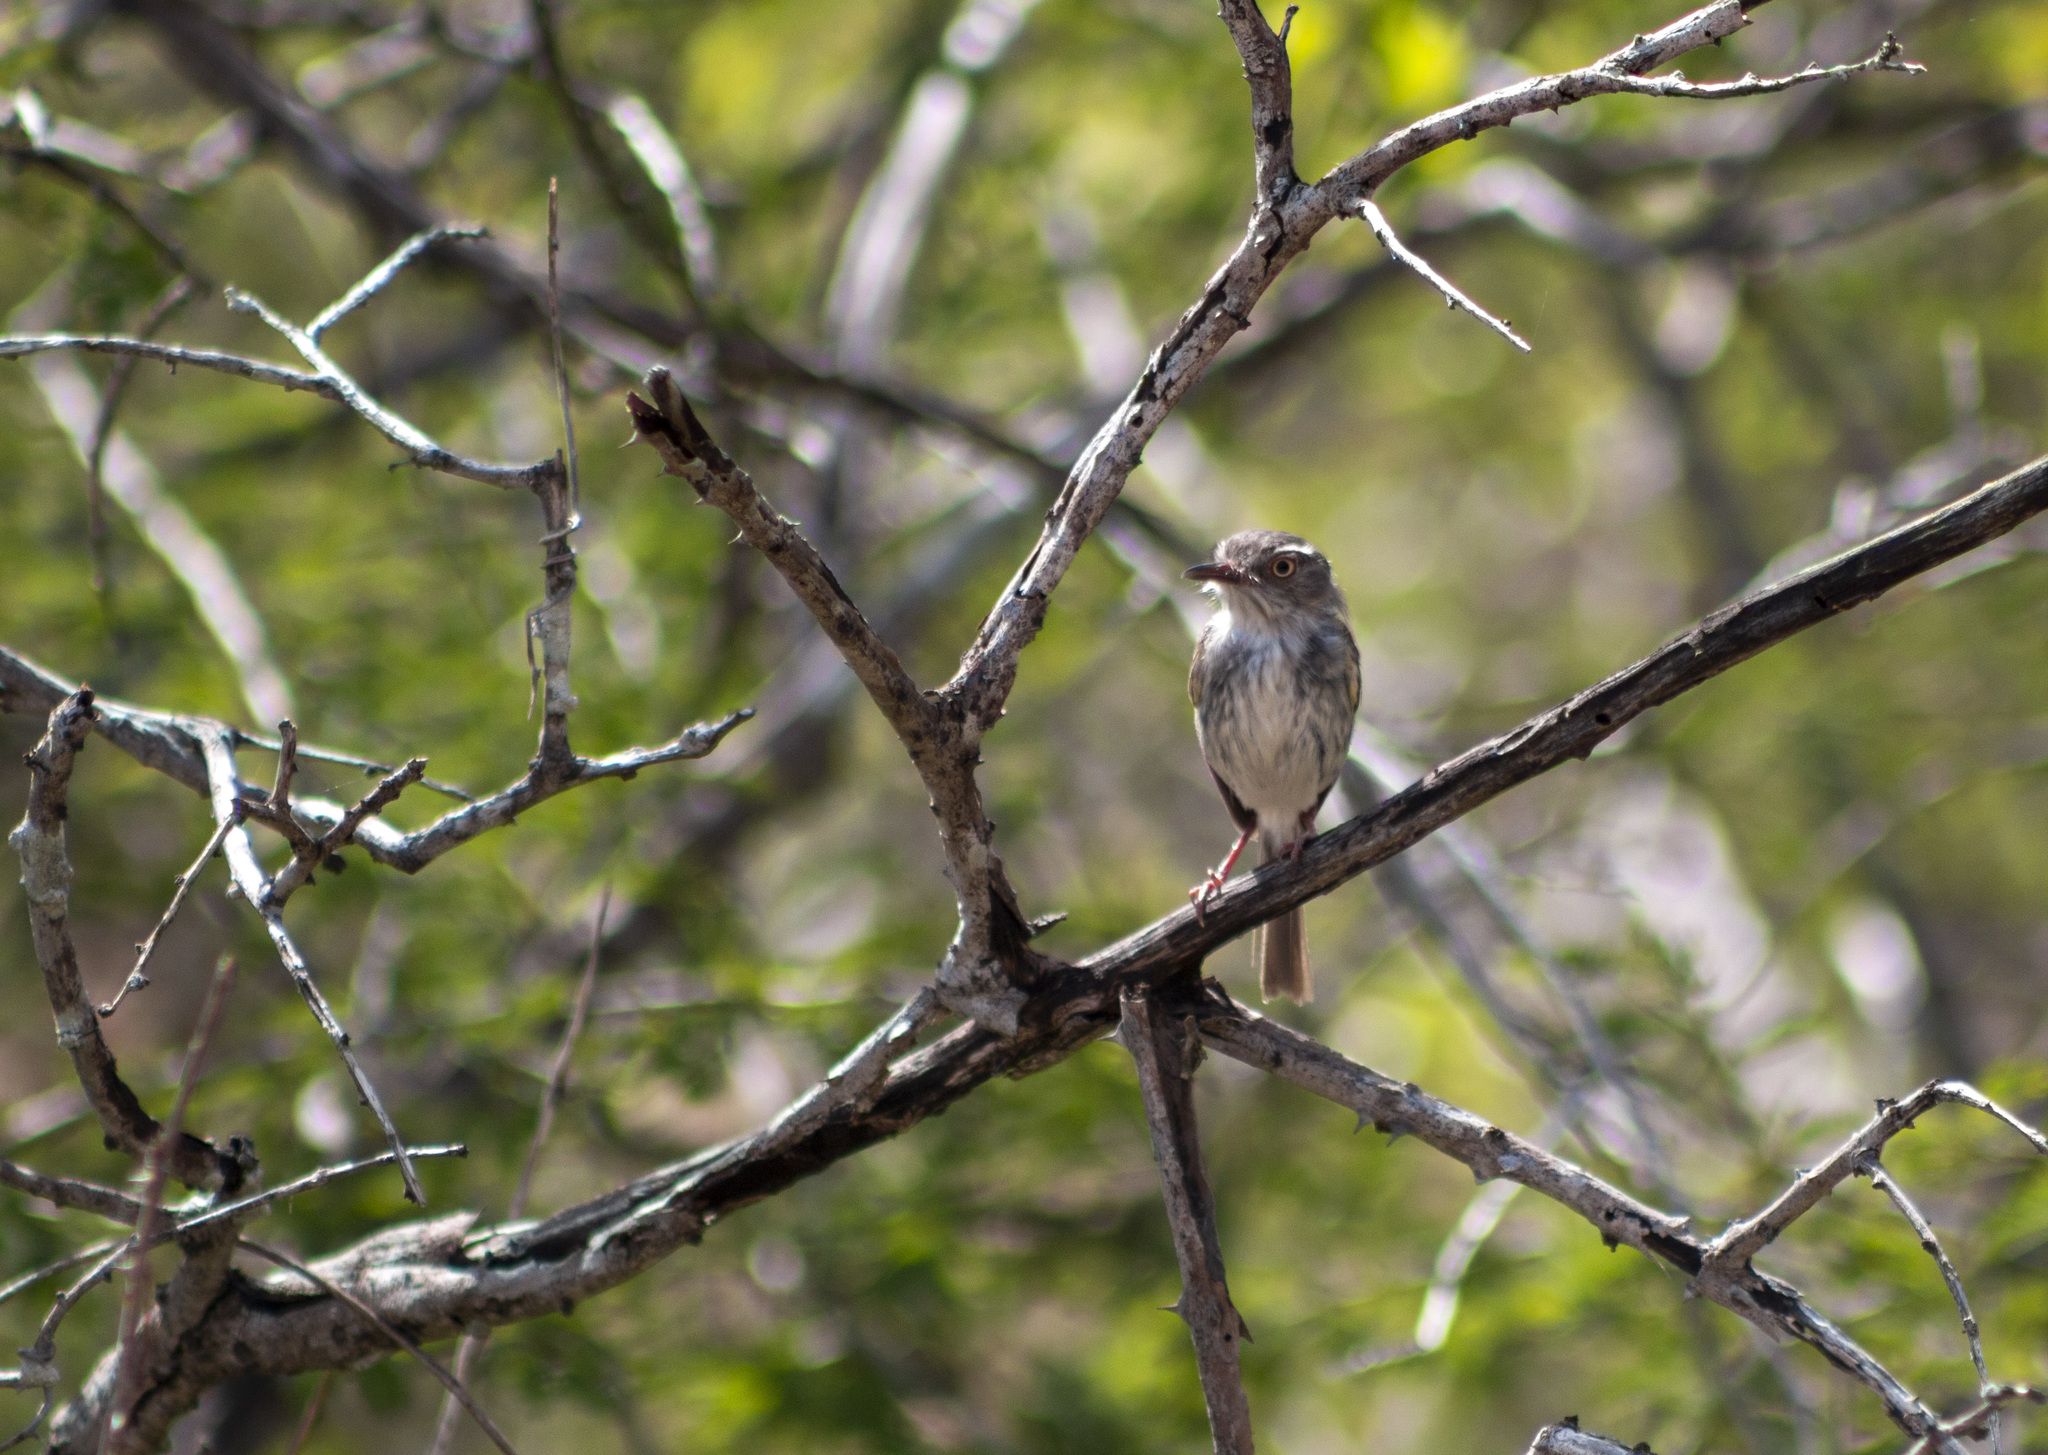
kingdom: Animalia
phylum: Chordata
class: Aves
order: Passeriformes
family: Tyrannidae
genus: Hemitriccus
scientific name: Hemitriccus margaritaceiventer
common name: Pearly-vented tody-tyrant
